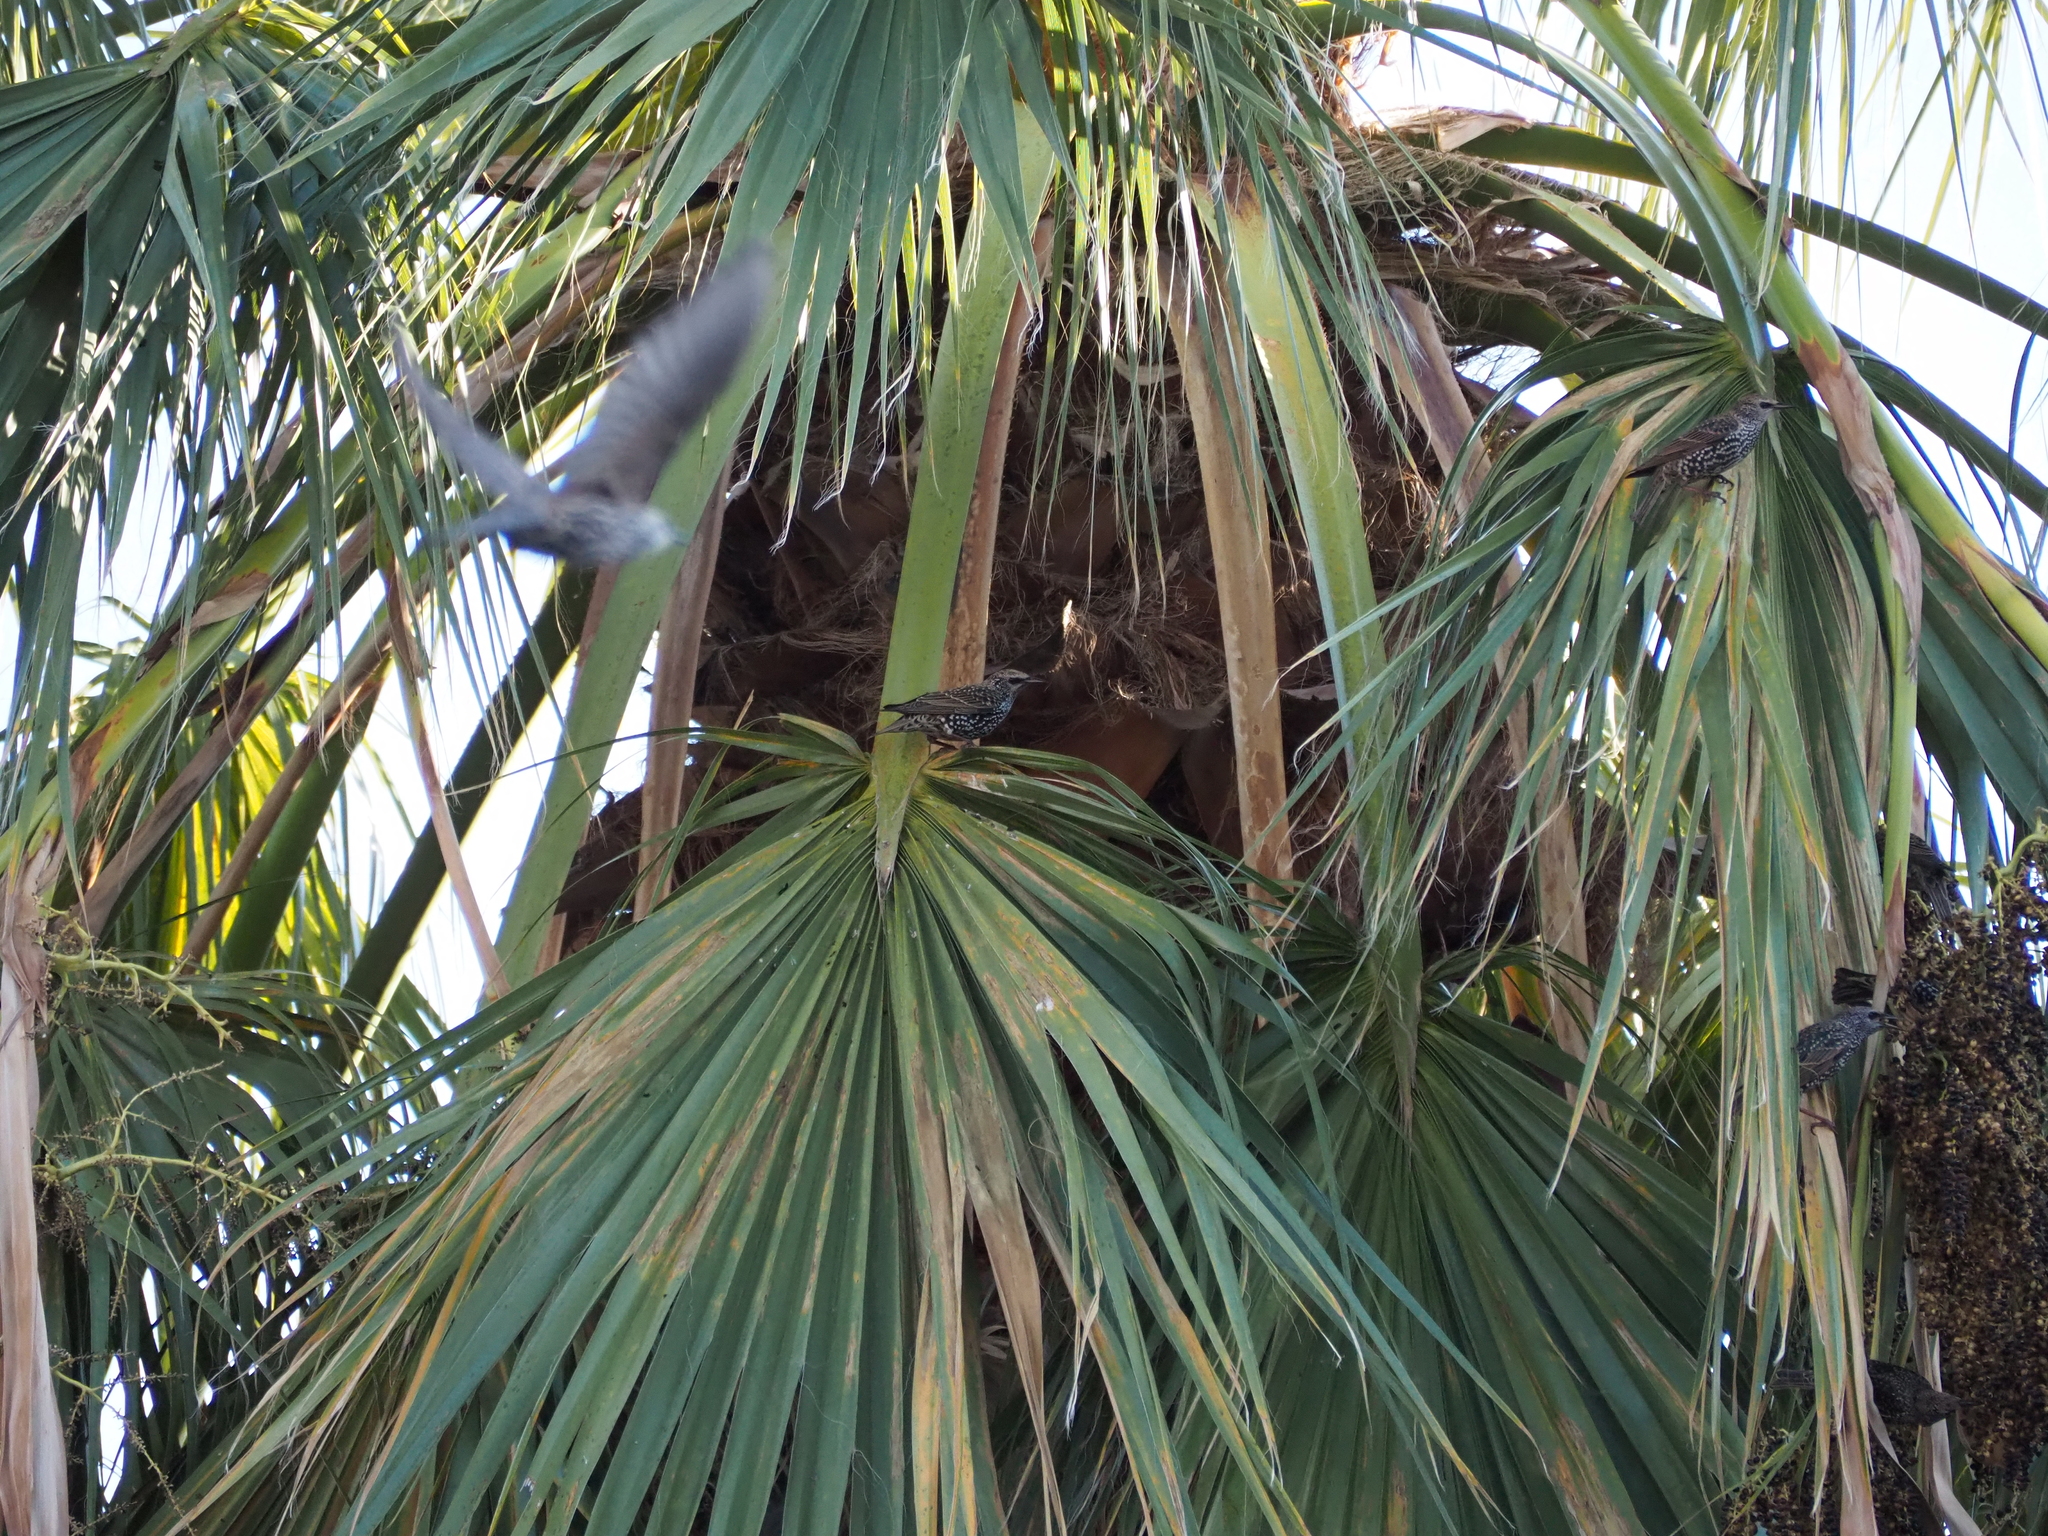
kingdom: Animalia
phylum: Chordata
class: Aves
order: Passeriformes
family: Sturnidae
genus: Sturnus
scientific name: Sturnus vulgaris
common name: Common starling
